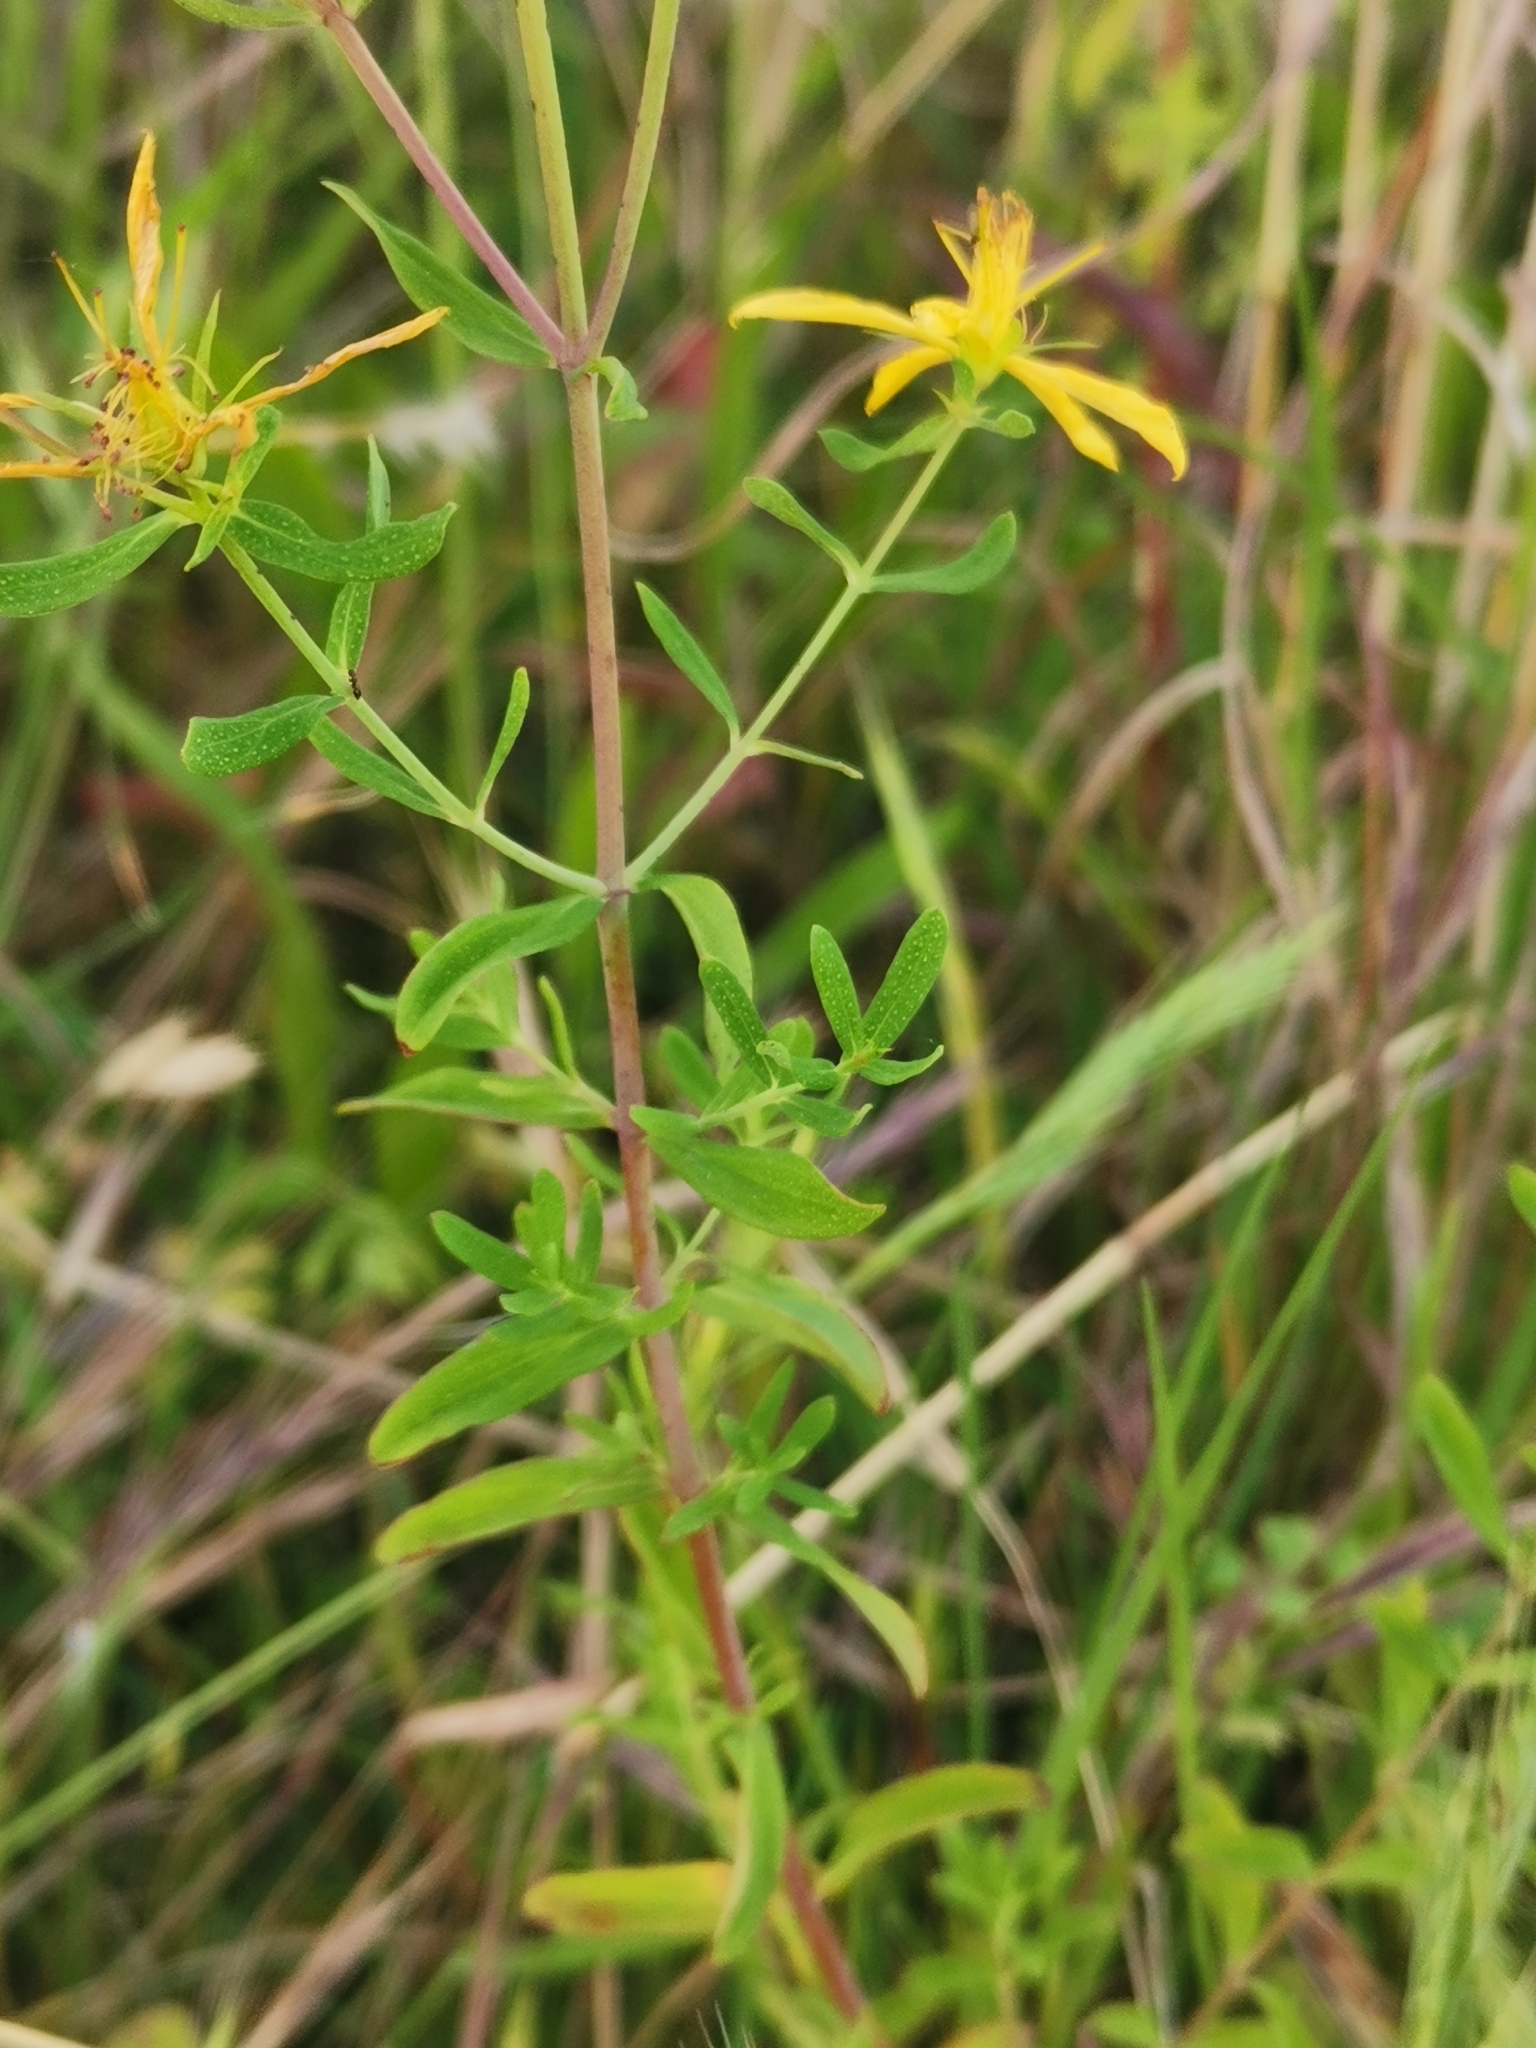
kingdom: Plantae
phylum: Tracheophyta
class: Magnoliopsida
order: Malpighiales
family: Hypericaceae
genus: Hypericum
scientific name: Hypericum perforatum
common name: Common st. johnswort
